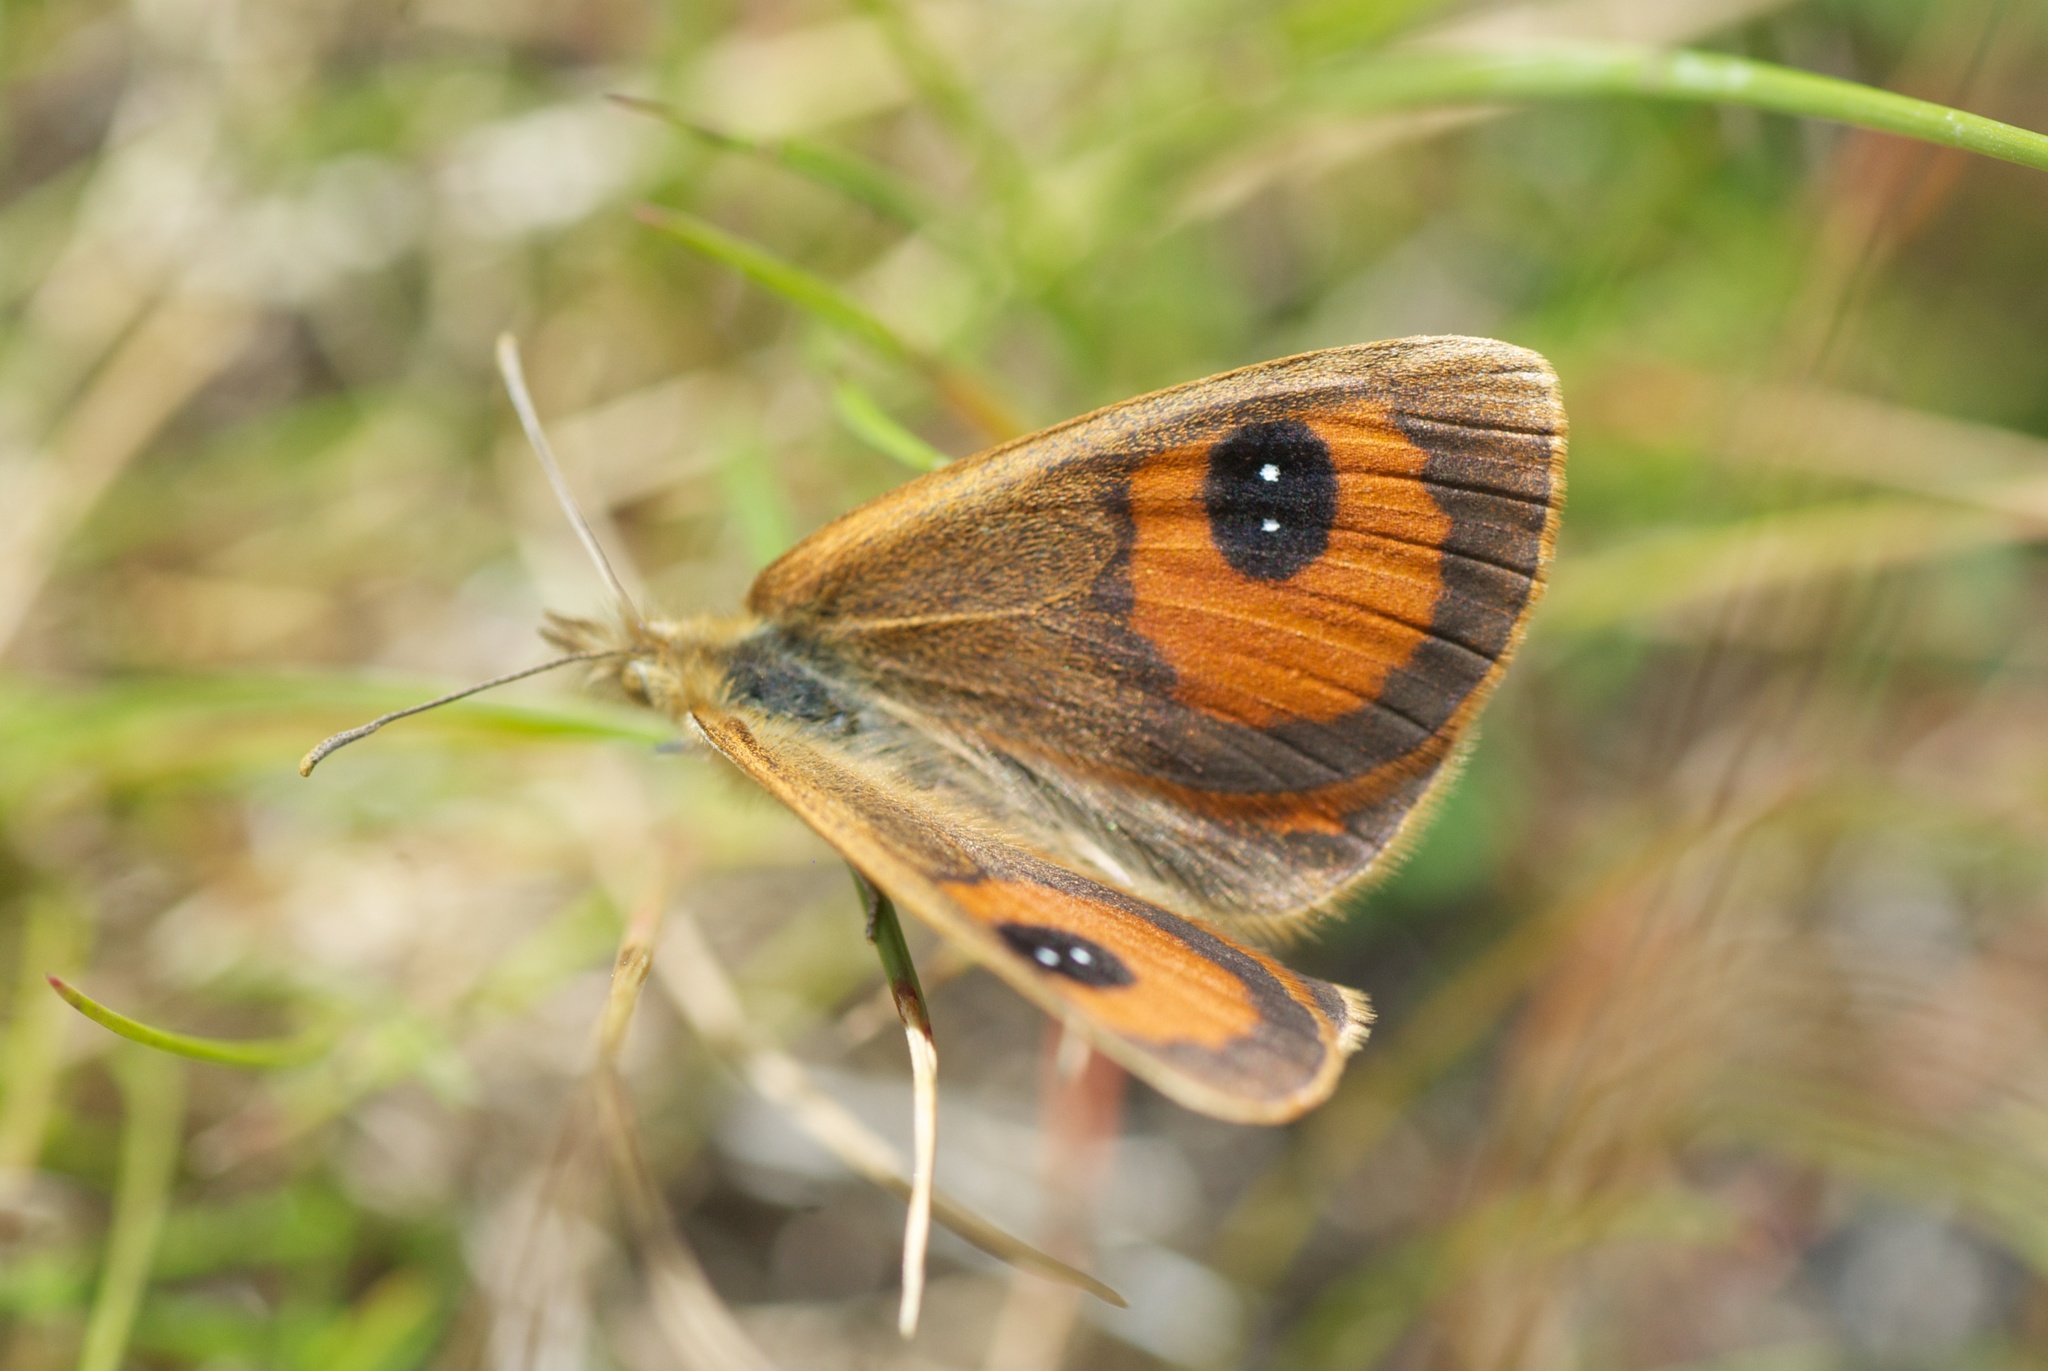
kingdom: Animalia
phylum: Arthropoda
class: Insecta
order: Lepidoptera
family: Nymphalidae
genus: Argyrophenga
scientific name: Argyrophenga antipodum
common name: Common tussock butterfly
